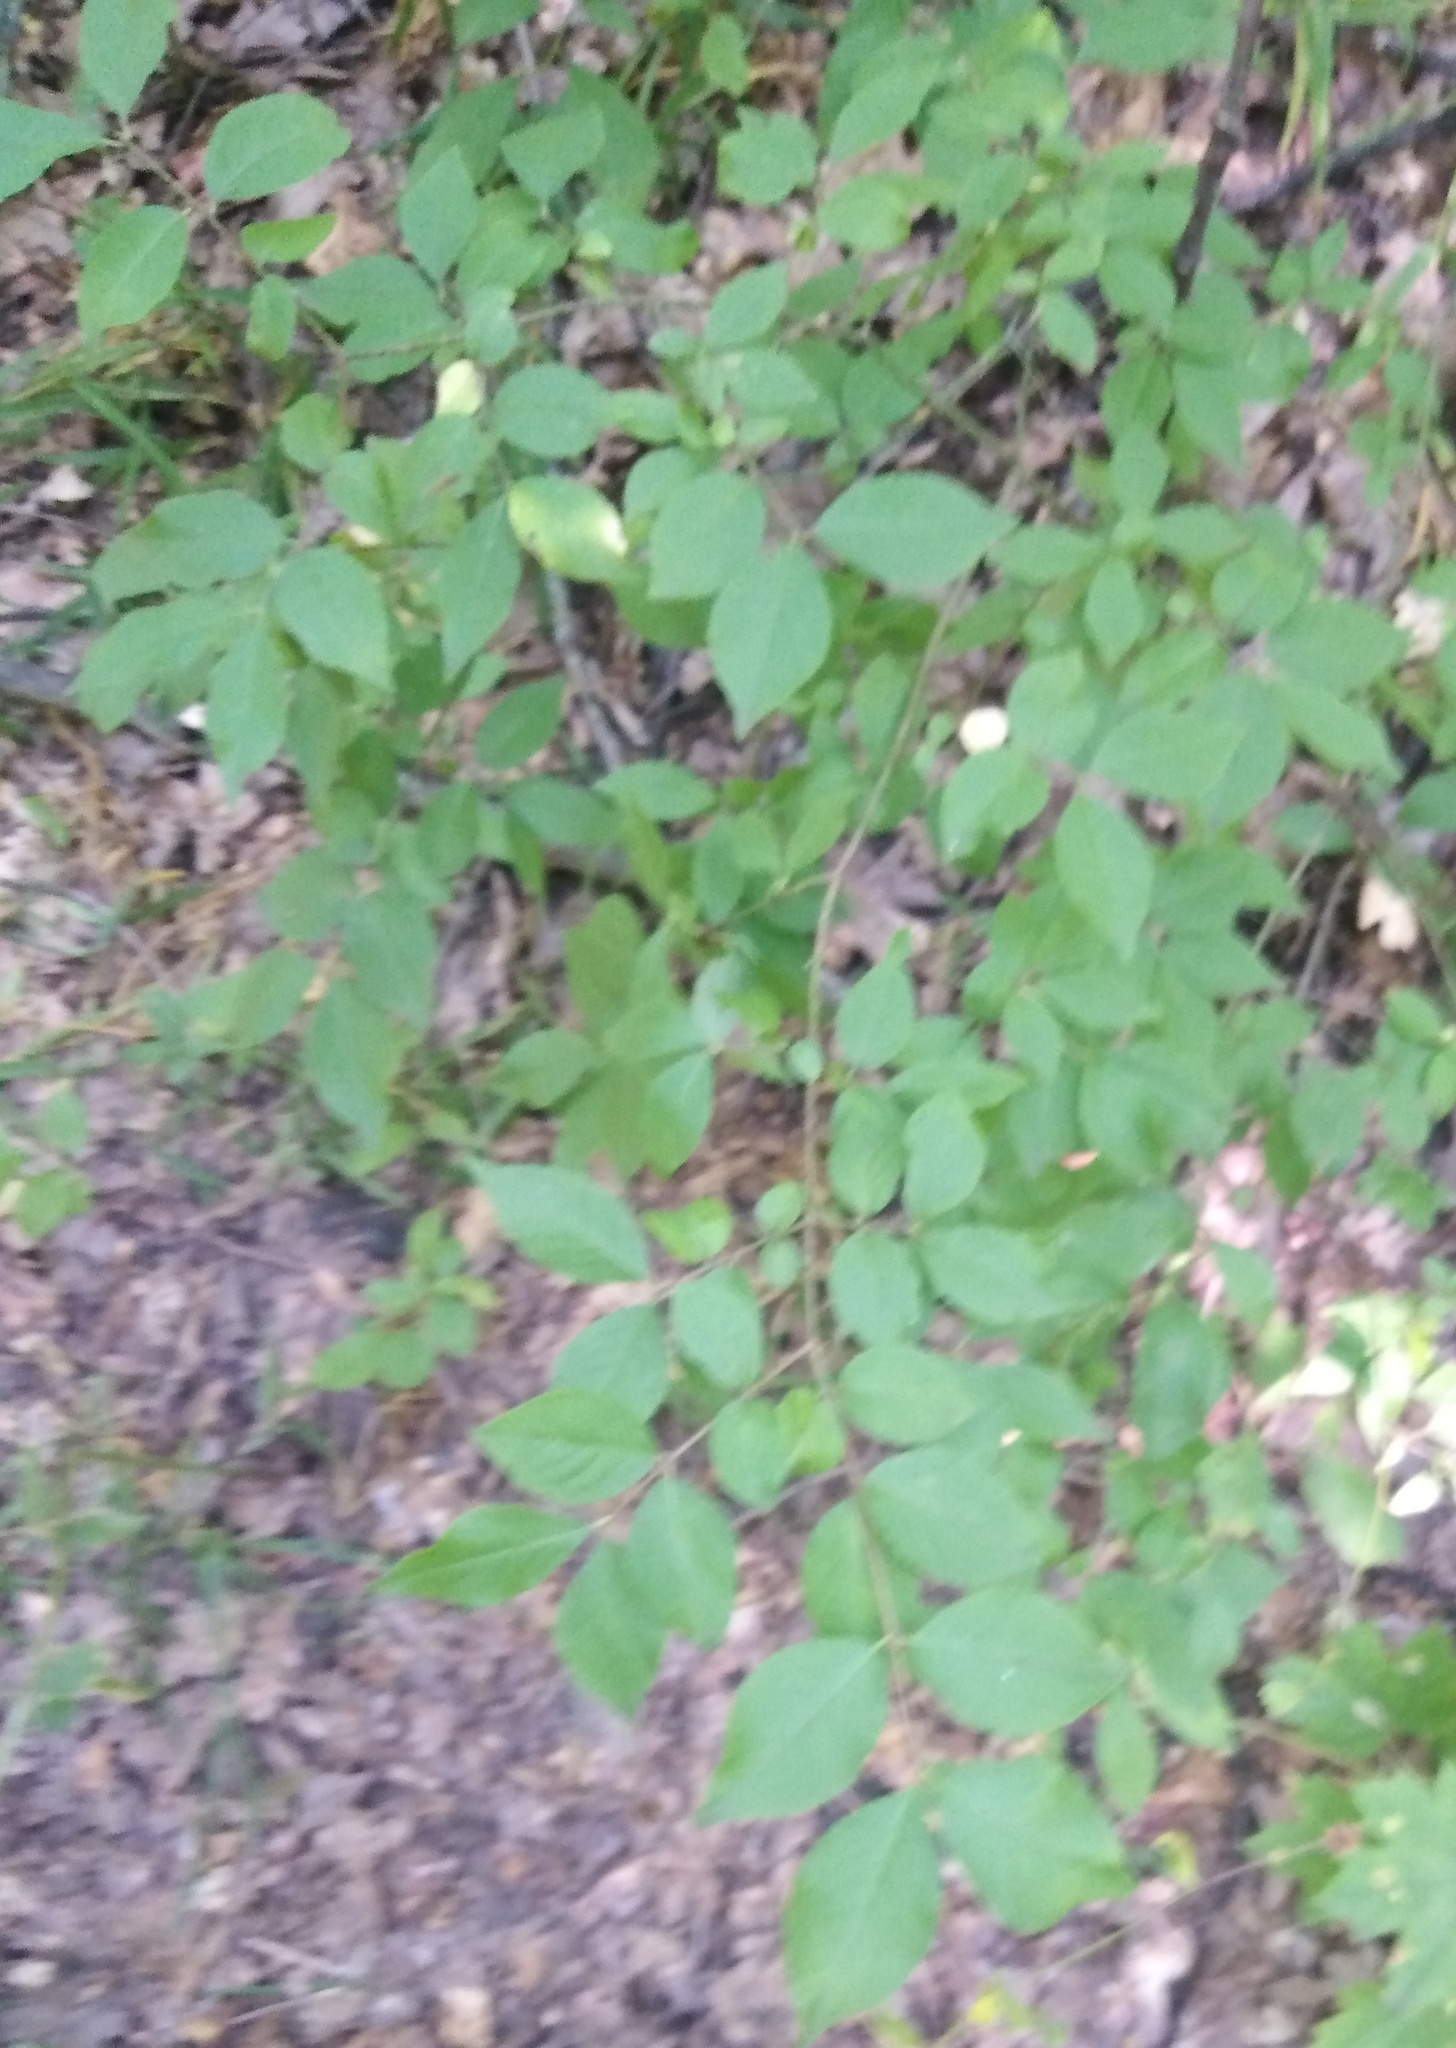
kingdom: Plantae
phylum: Tracheophyta
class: Magnoliopsida
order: Celastrales
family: Celastraceae
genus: Euonymus
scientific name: Euonymus verrucosus
